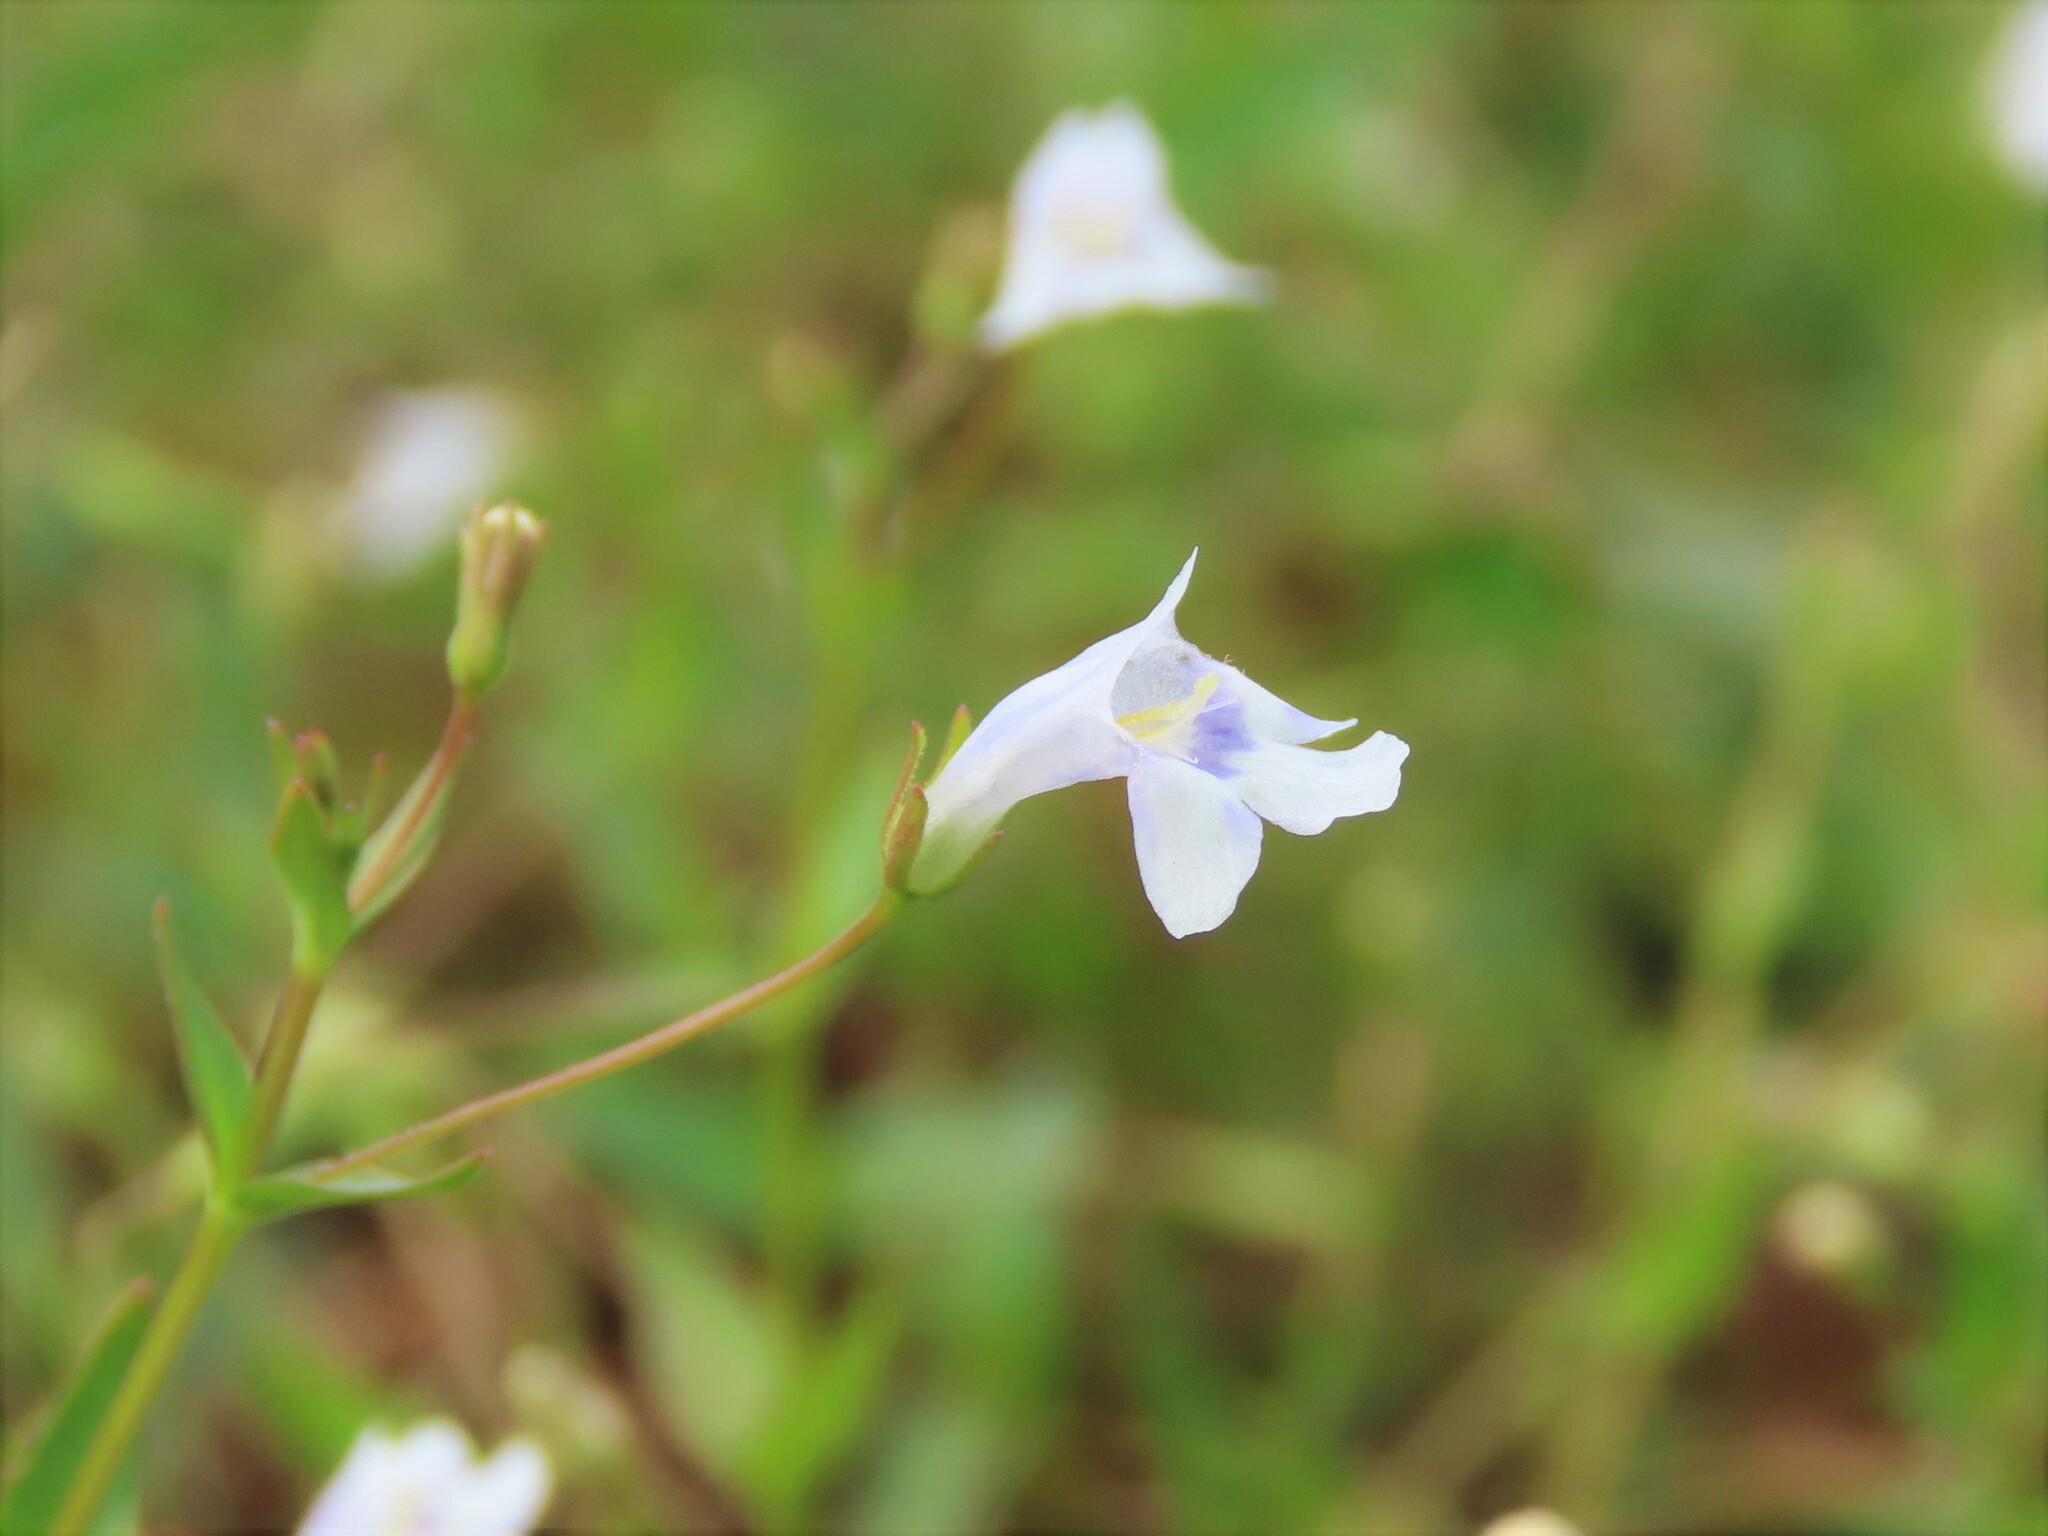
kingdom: Plantae
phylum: Tracheophyta
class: Magnoliopsida
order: Lamiales
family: Linderniaceae
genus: Lindernia
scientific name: Lindernia dubia
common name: Annual false pimpernel
